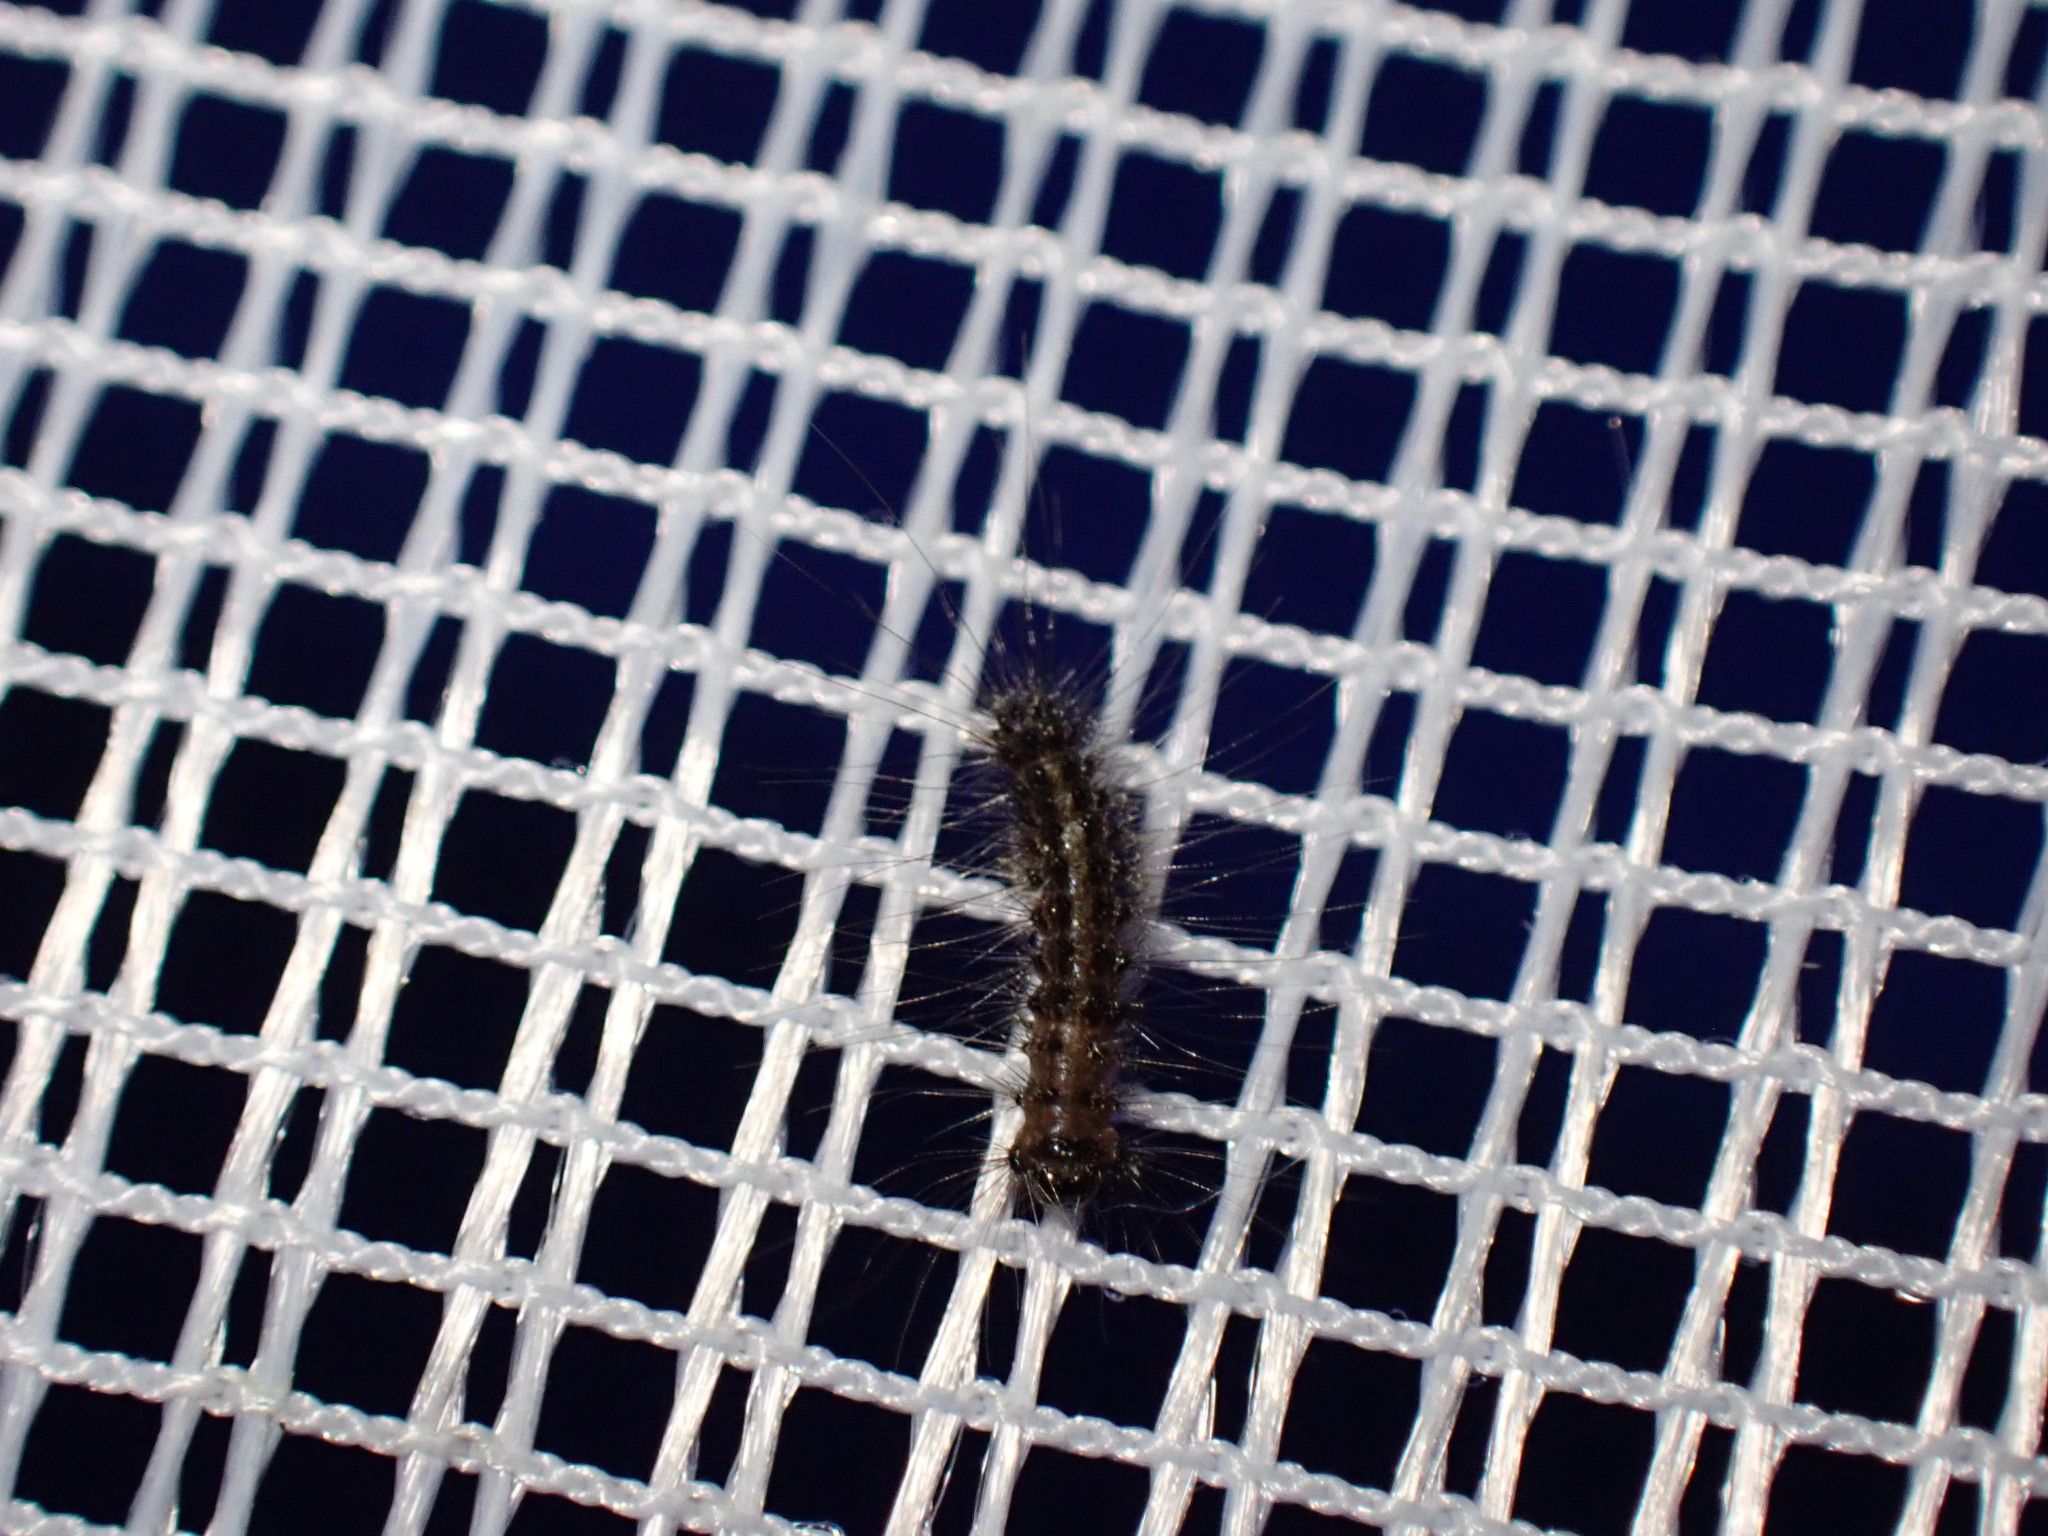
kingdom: Animalia
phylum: Arthropoda
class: Insecta
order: Lepidoptera
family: Erebidae
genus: Lymantria
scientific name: Lymantria dispar
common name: Gypsy moth
